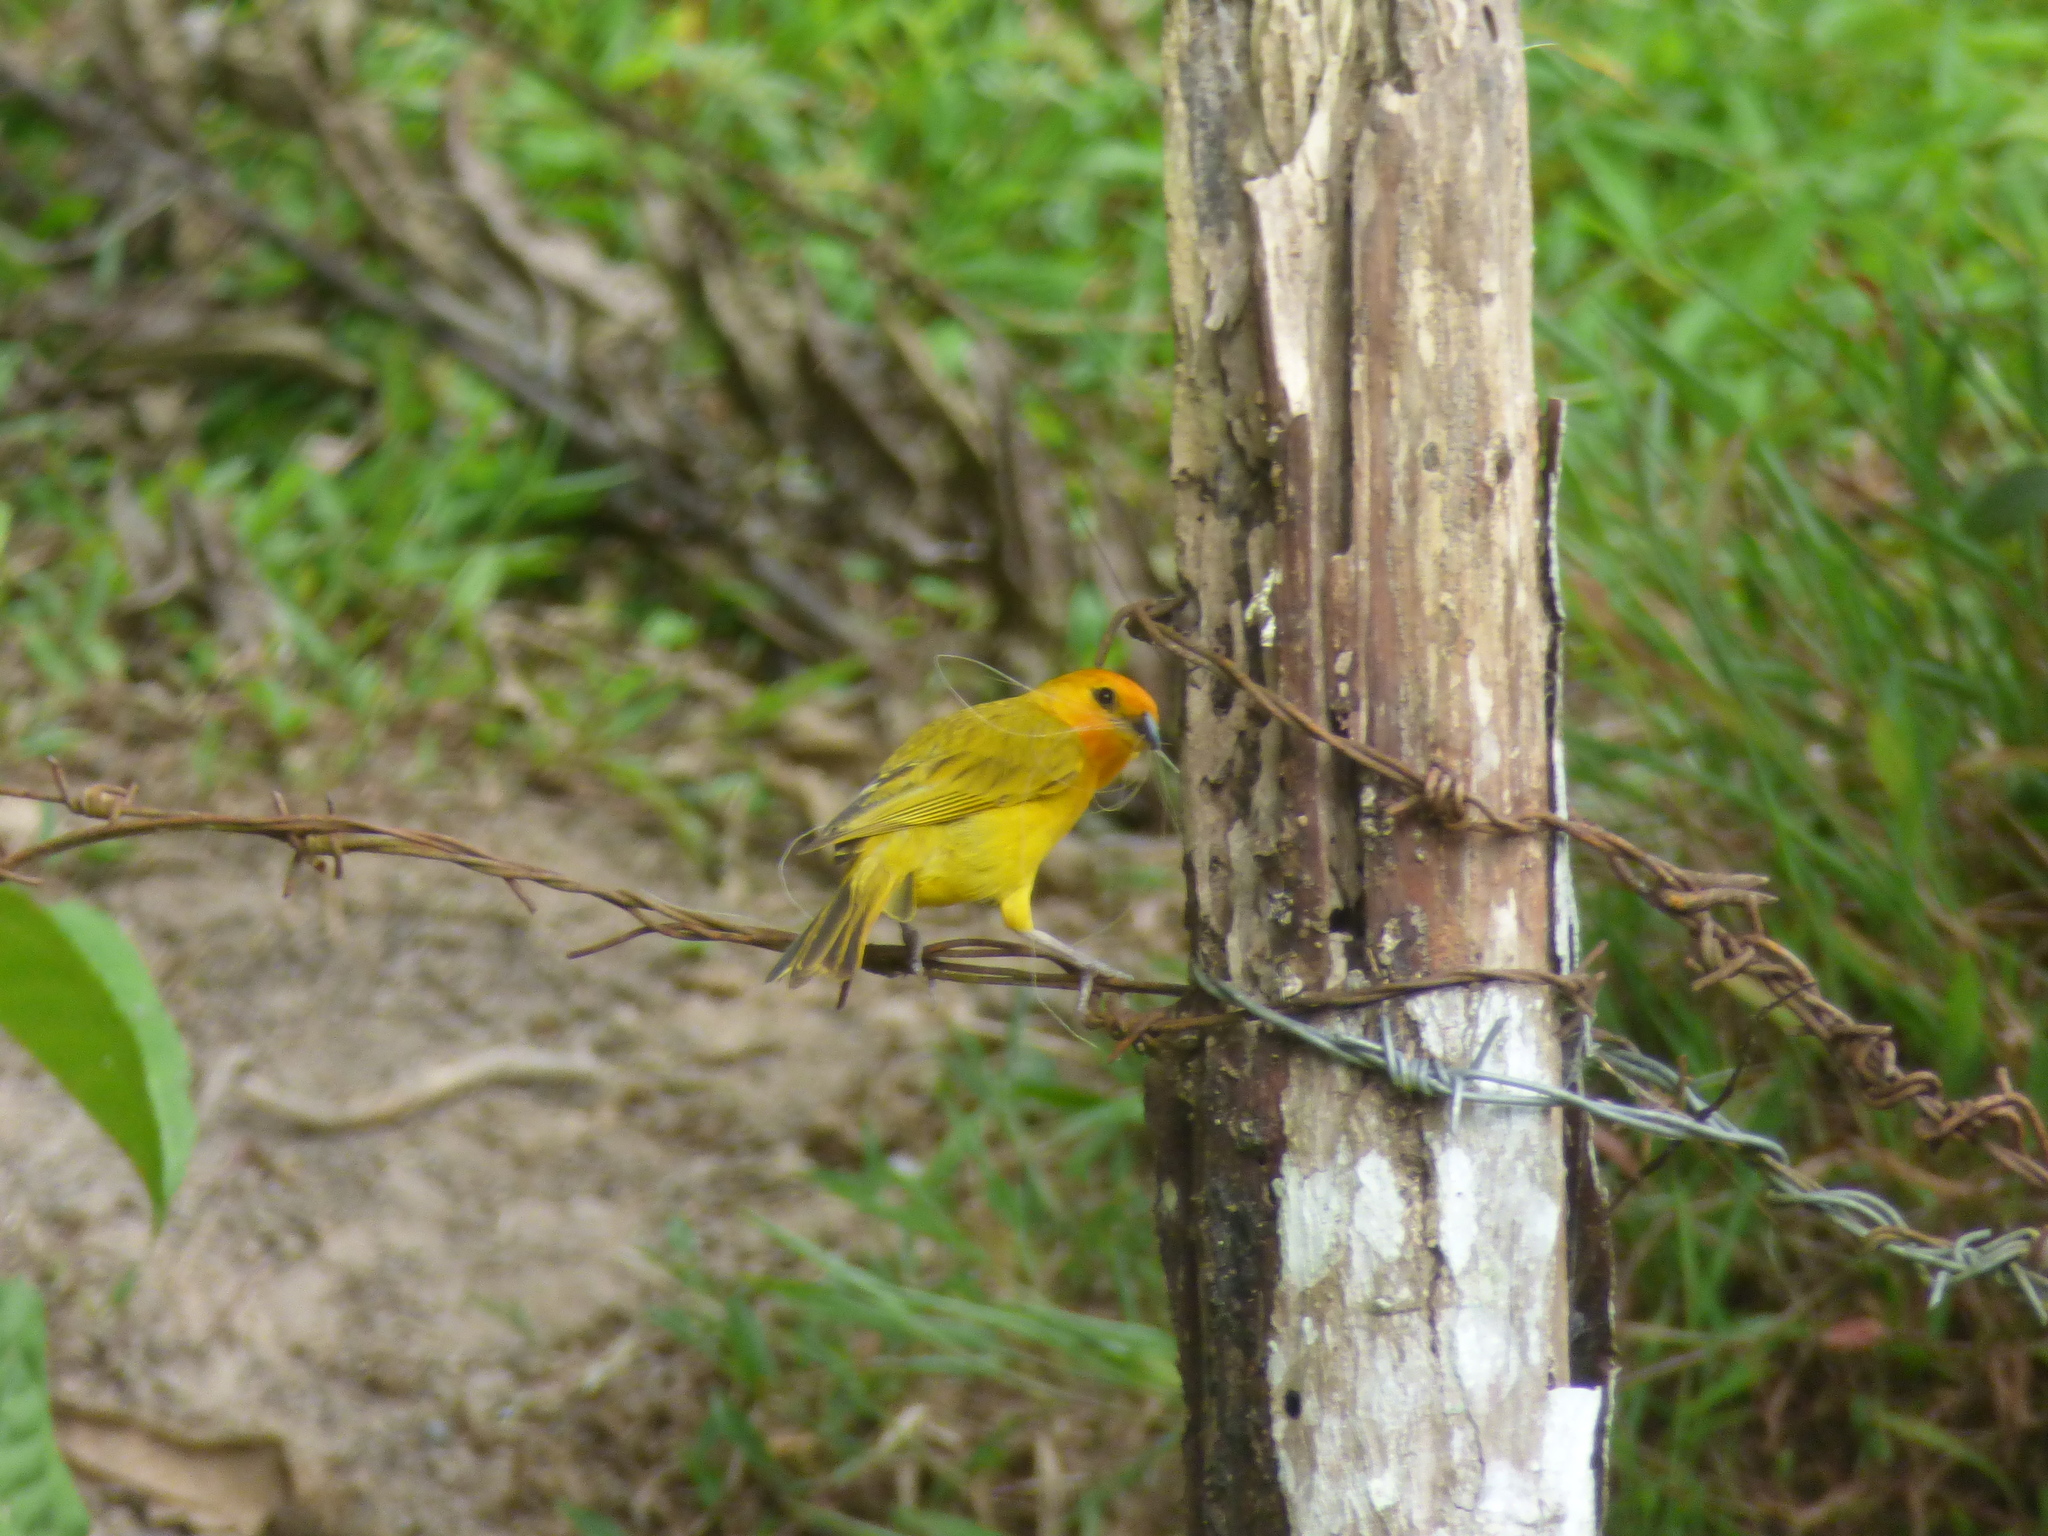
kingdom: Animalia
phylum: Chordata
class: Aves
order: Passeriformes
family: Thraupidae
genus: Sicalis
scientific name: Sicalis flaveola
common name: Saffron finch
